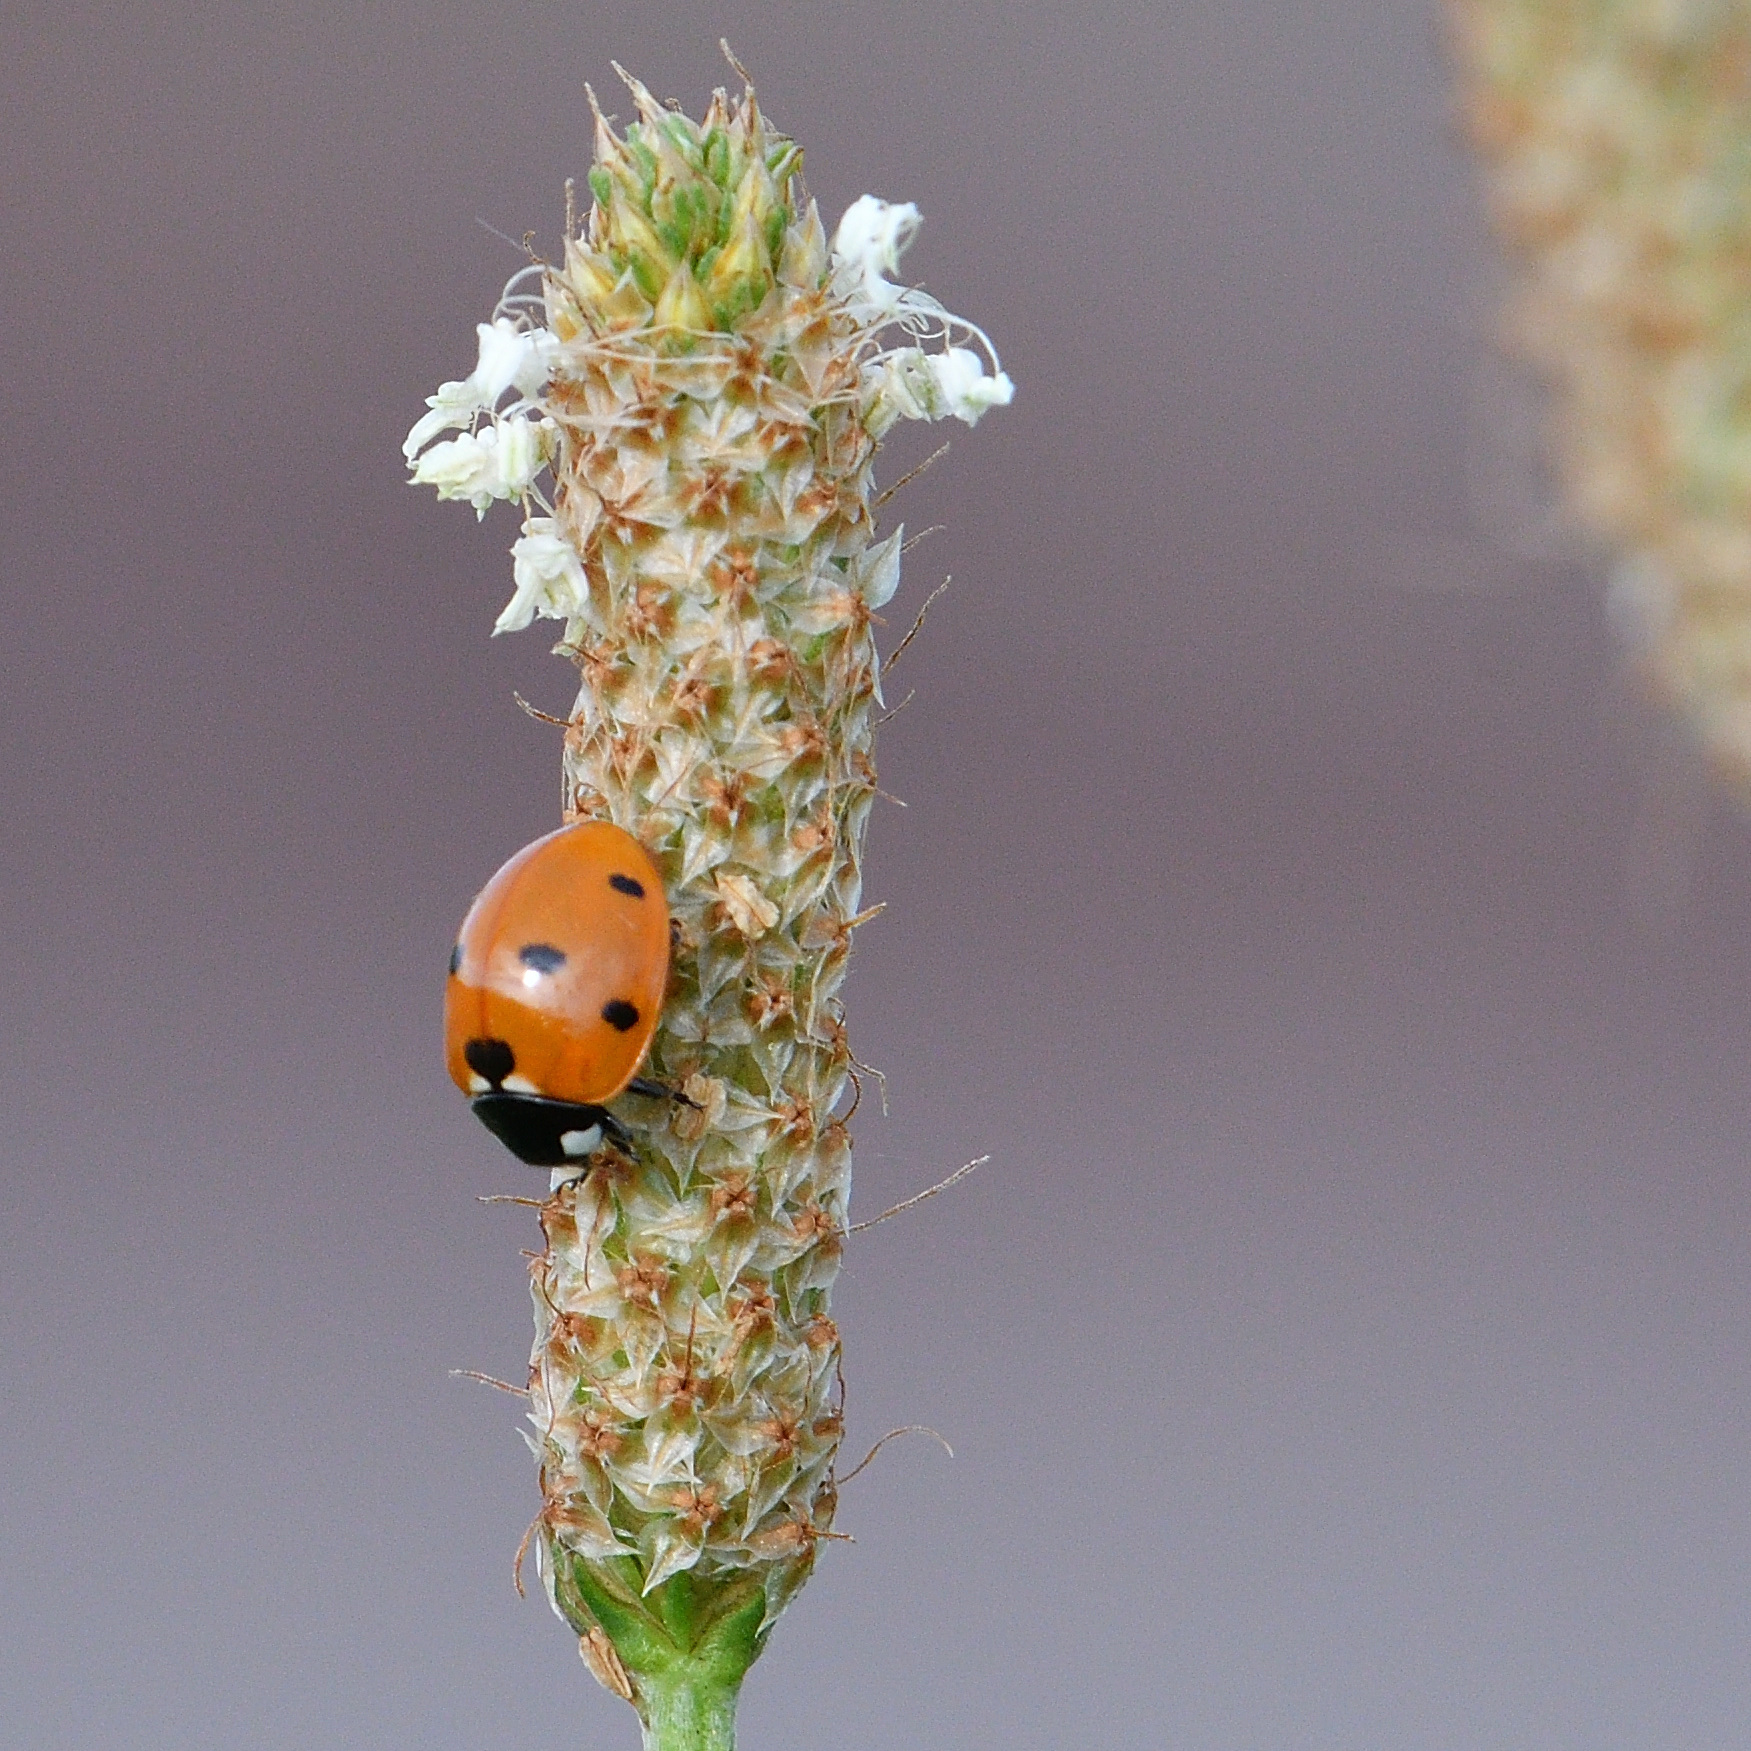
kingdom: Animalia
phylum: Arthropoda
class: Insecta
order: Coleoptera
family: Coccinellidae
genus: Coccinella
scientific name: Coccinella septempunctata
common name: Sevenspotted lady beetle
